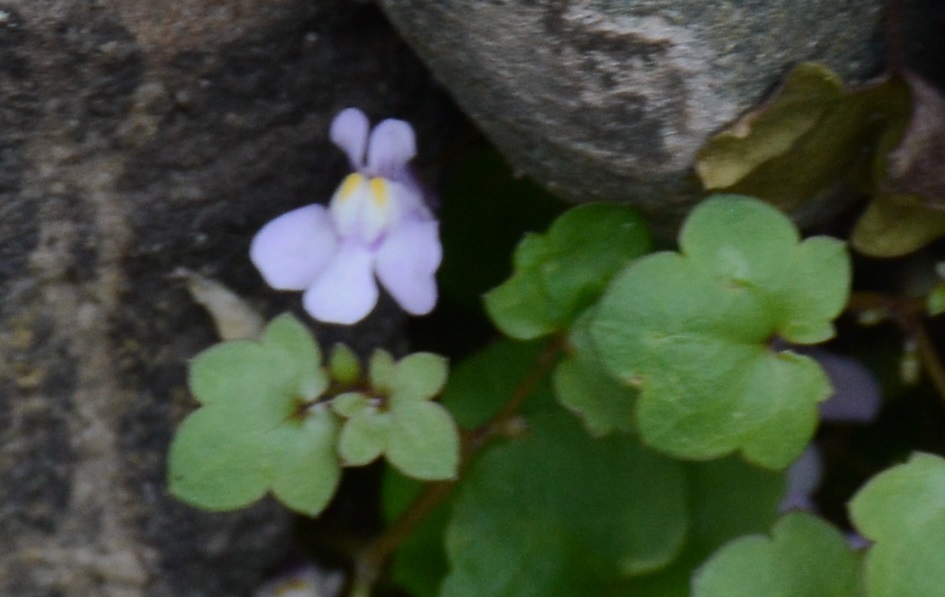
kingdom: Plantae
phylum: Tracheophyta
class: Magnoliopsida
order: Lamiales
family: Plantaginaceae
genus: Cymbalaria
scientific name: Cymbalaria muralis
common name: Ivy-leaved toadflax
